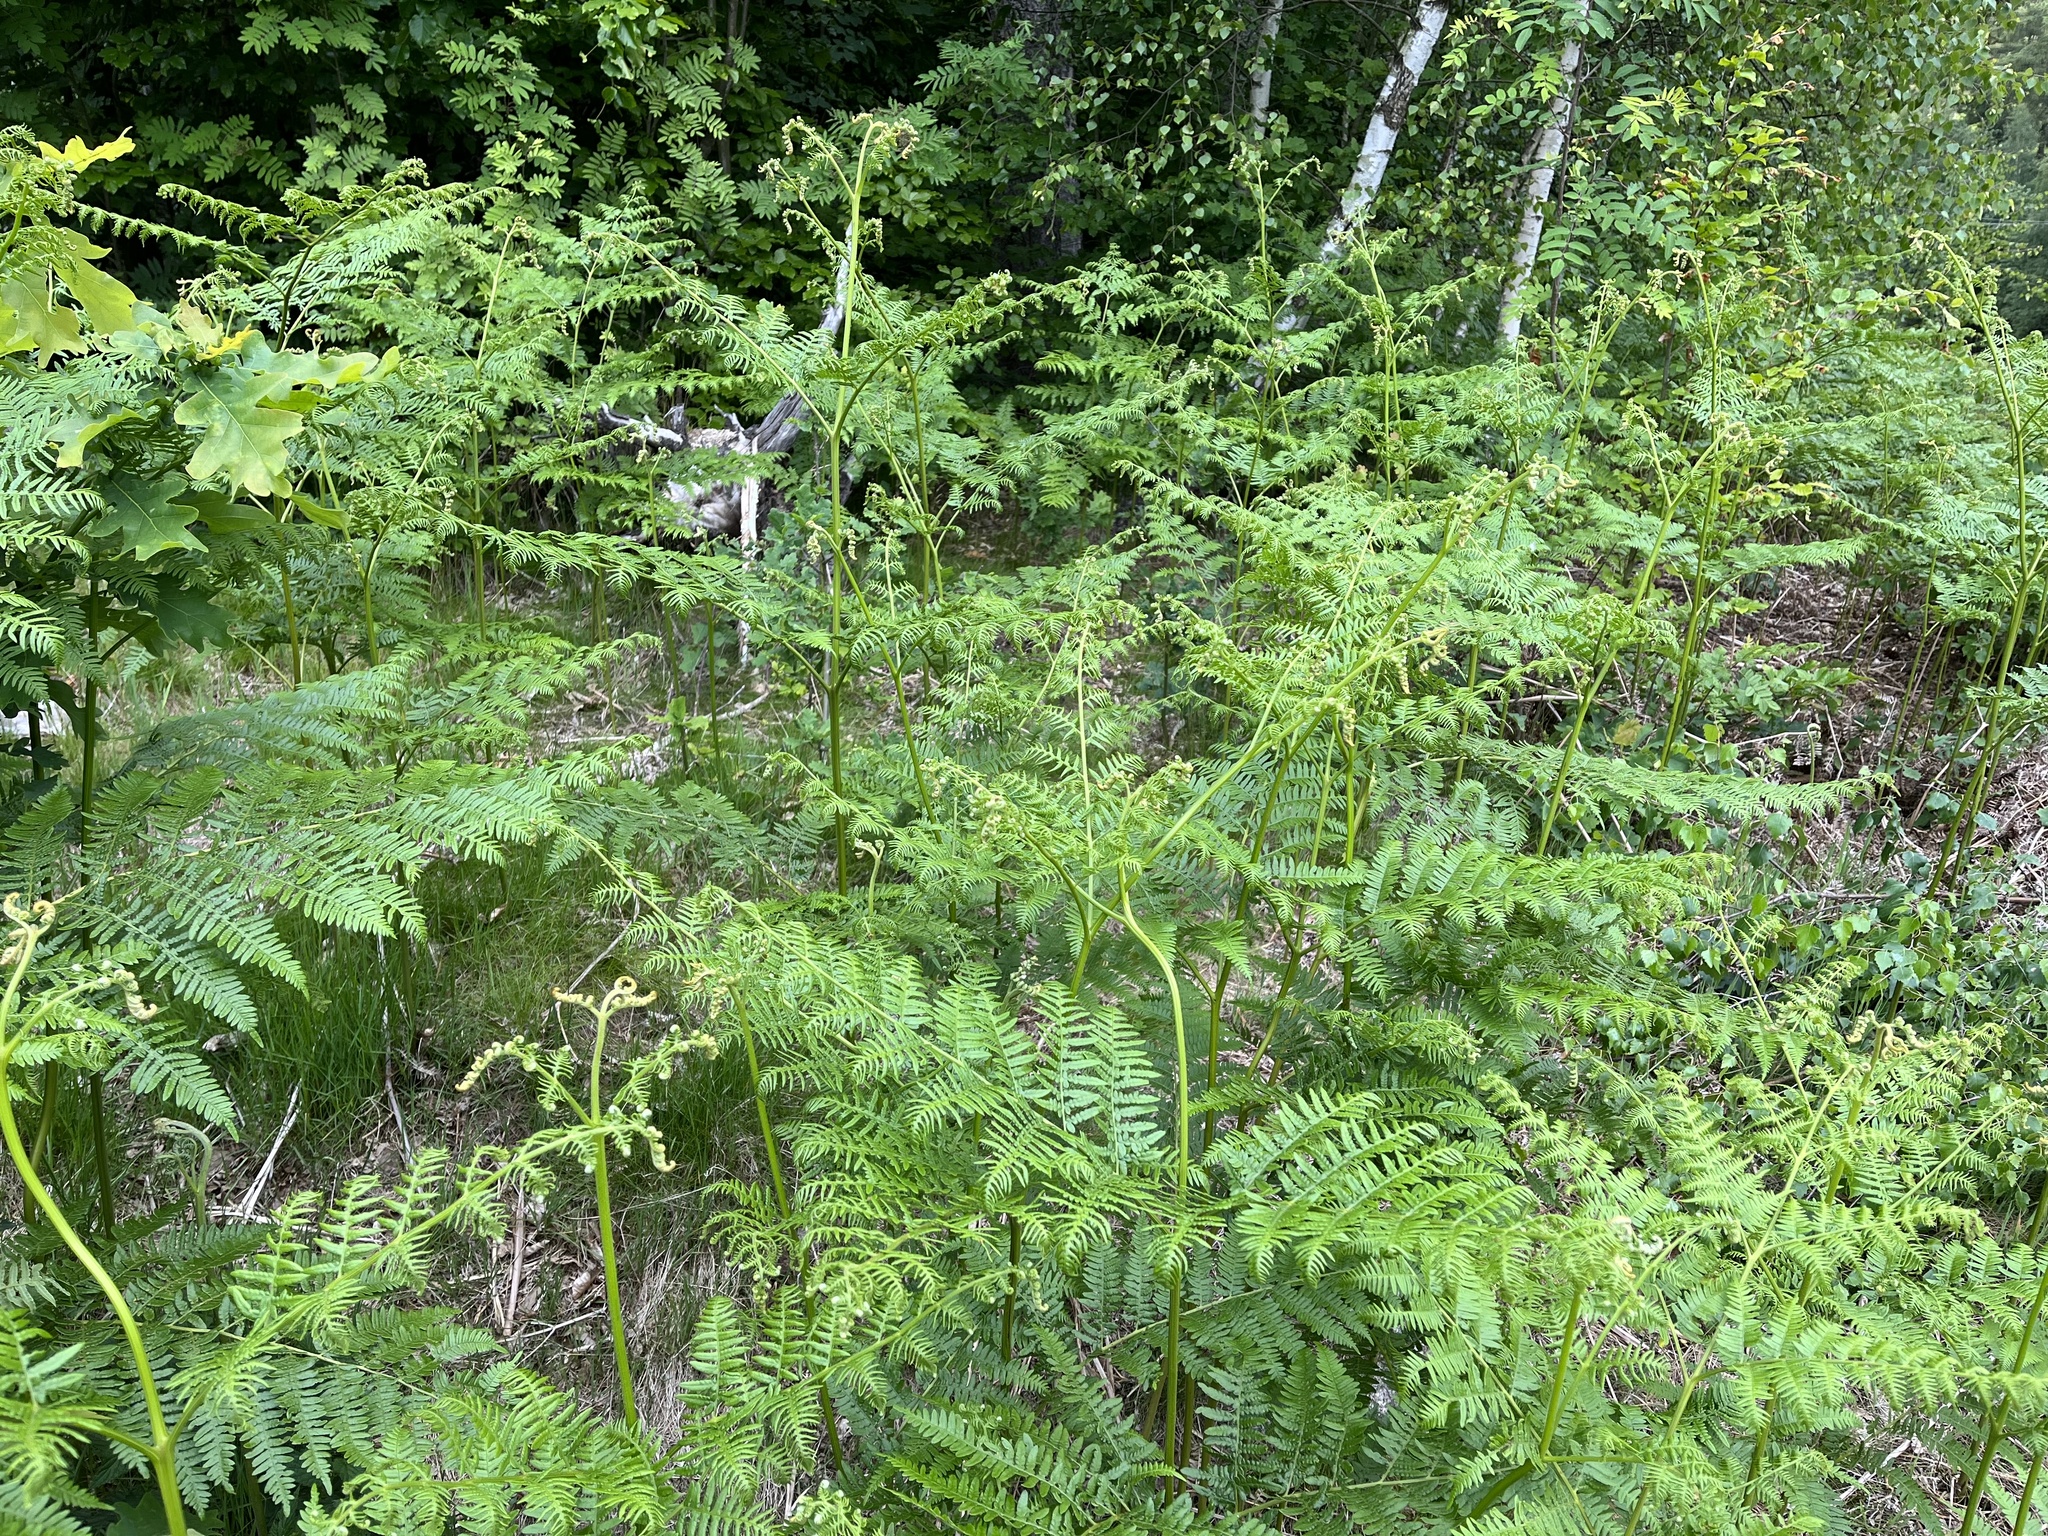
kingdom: Plantae
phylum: Tracheophyta
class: Polypodiopsida
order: Polypodiales
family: Dennstaedtiaceae
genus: Pteridium
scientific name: Pteridium aquilinum
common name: Bracken
